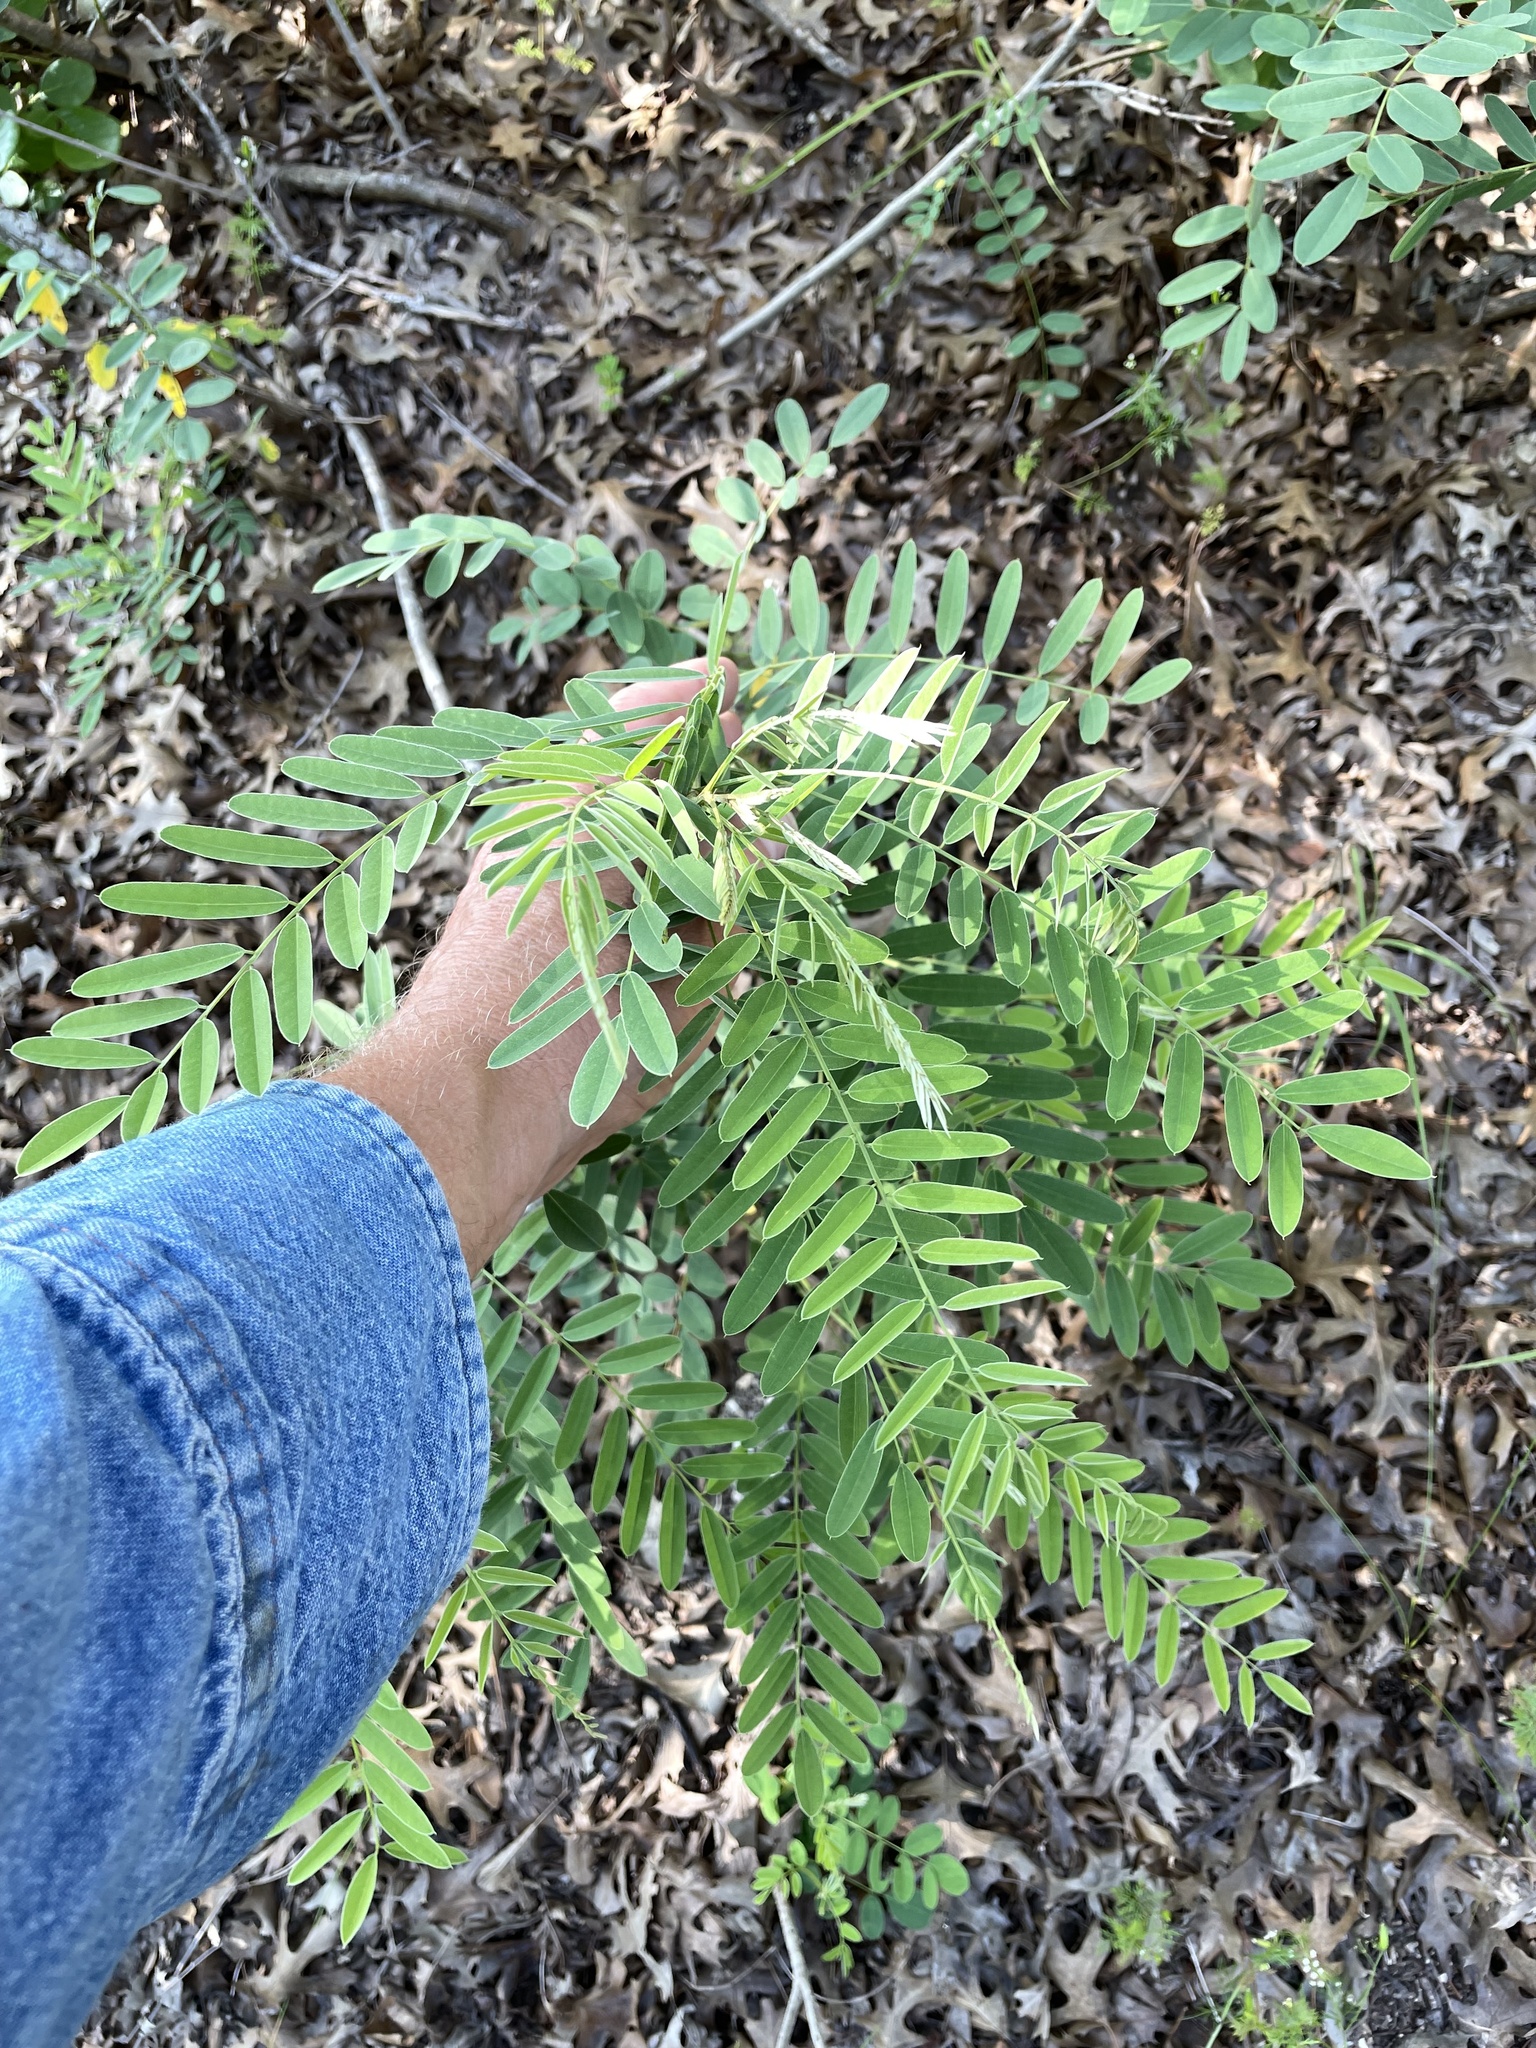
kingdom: Plantae
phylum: Tracheophyta
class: Magnoliopsida
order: Fabales
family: Fabaceae
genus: Amorpha
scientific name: Amorpha fruticosa
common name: False indigo
